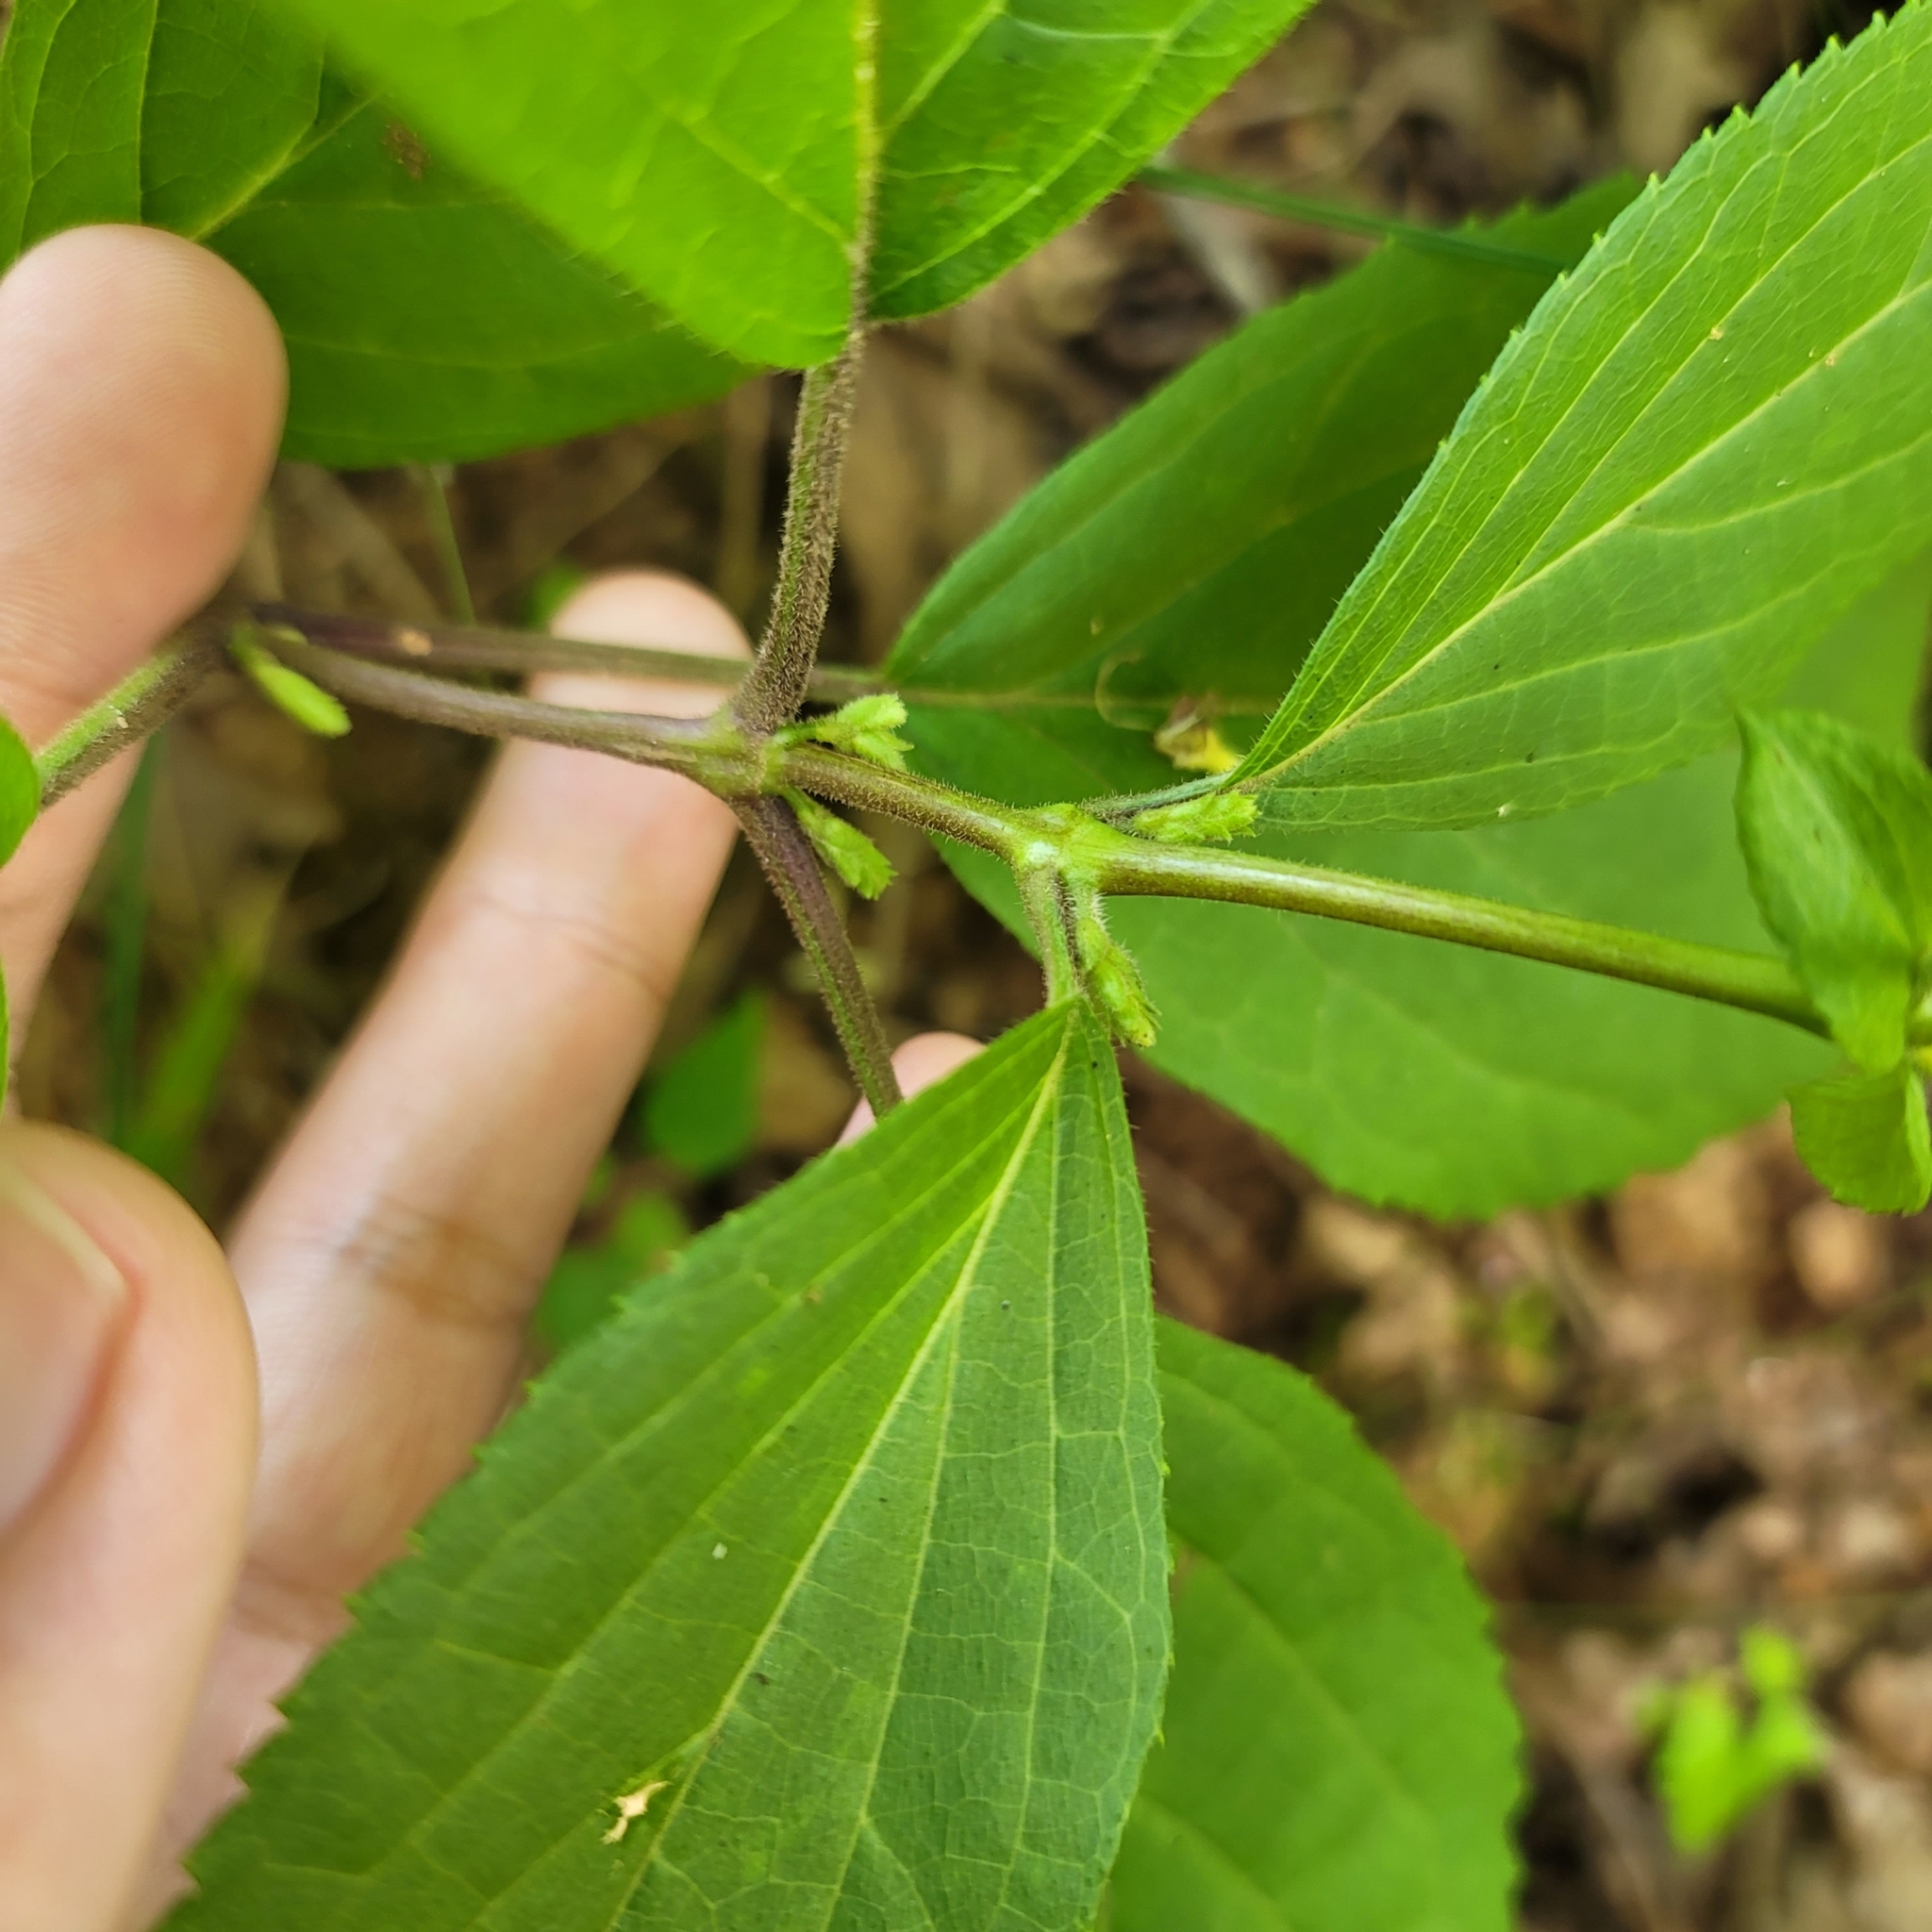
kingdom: Plantae
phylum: Tracheophyta
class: Magnoliopsida
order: Lamiales
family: Lamiaceae
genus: Collinsonia
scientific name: Collinsonia canadensis
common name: Northern horsebalm
